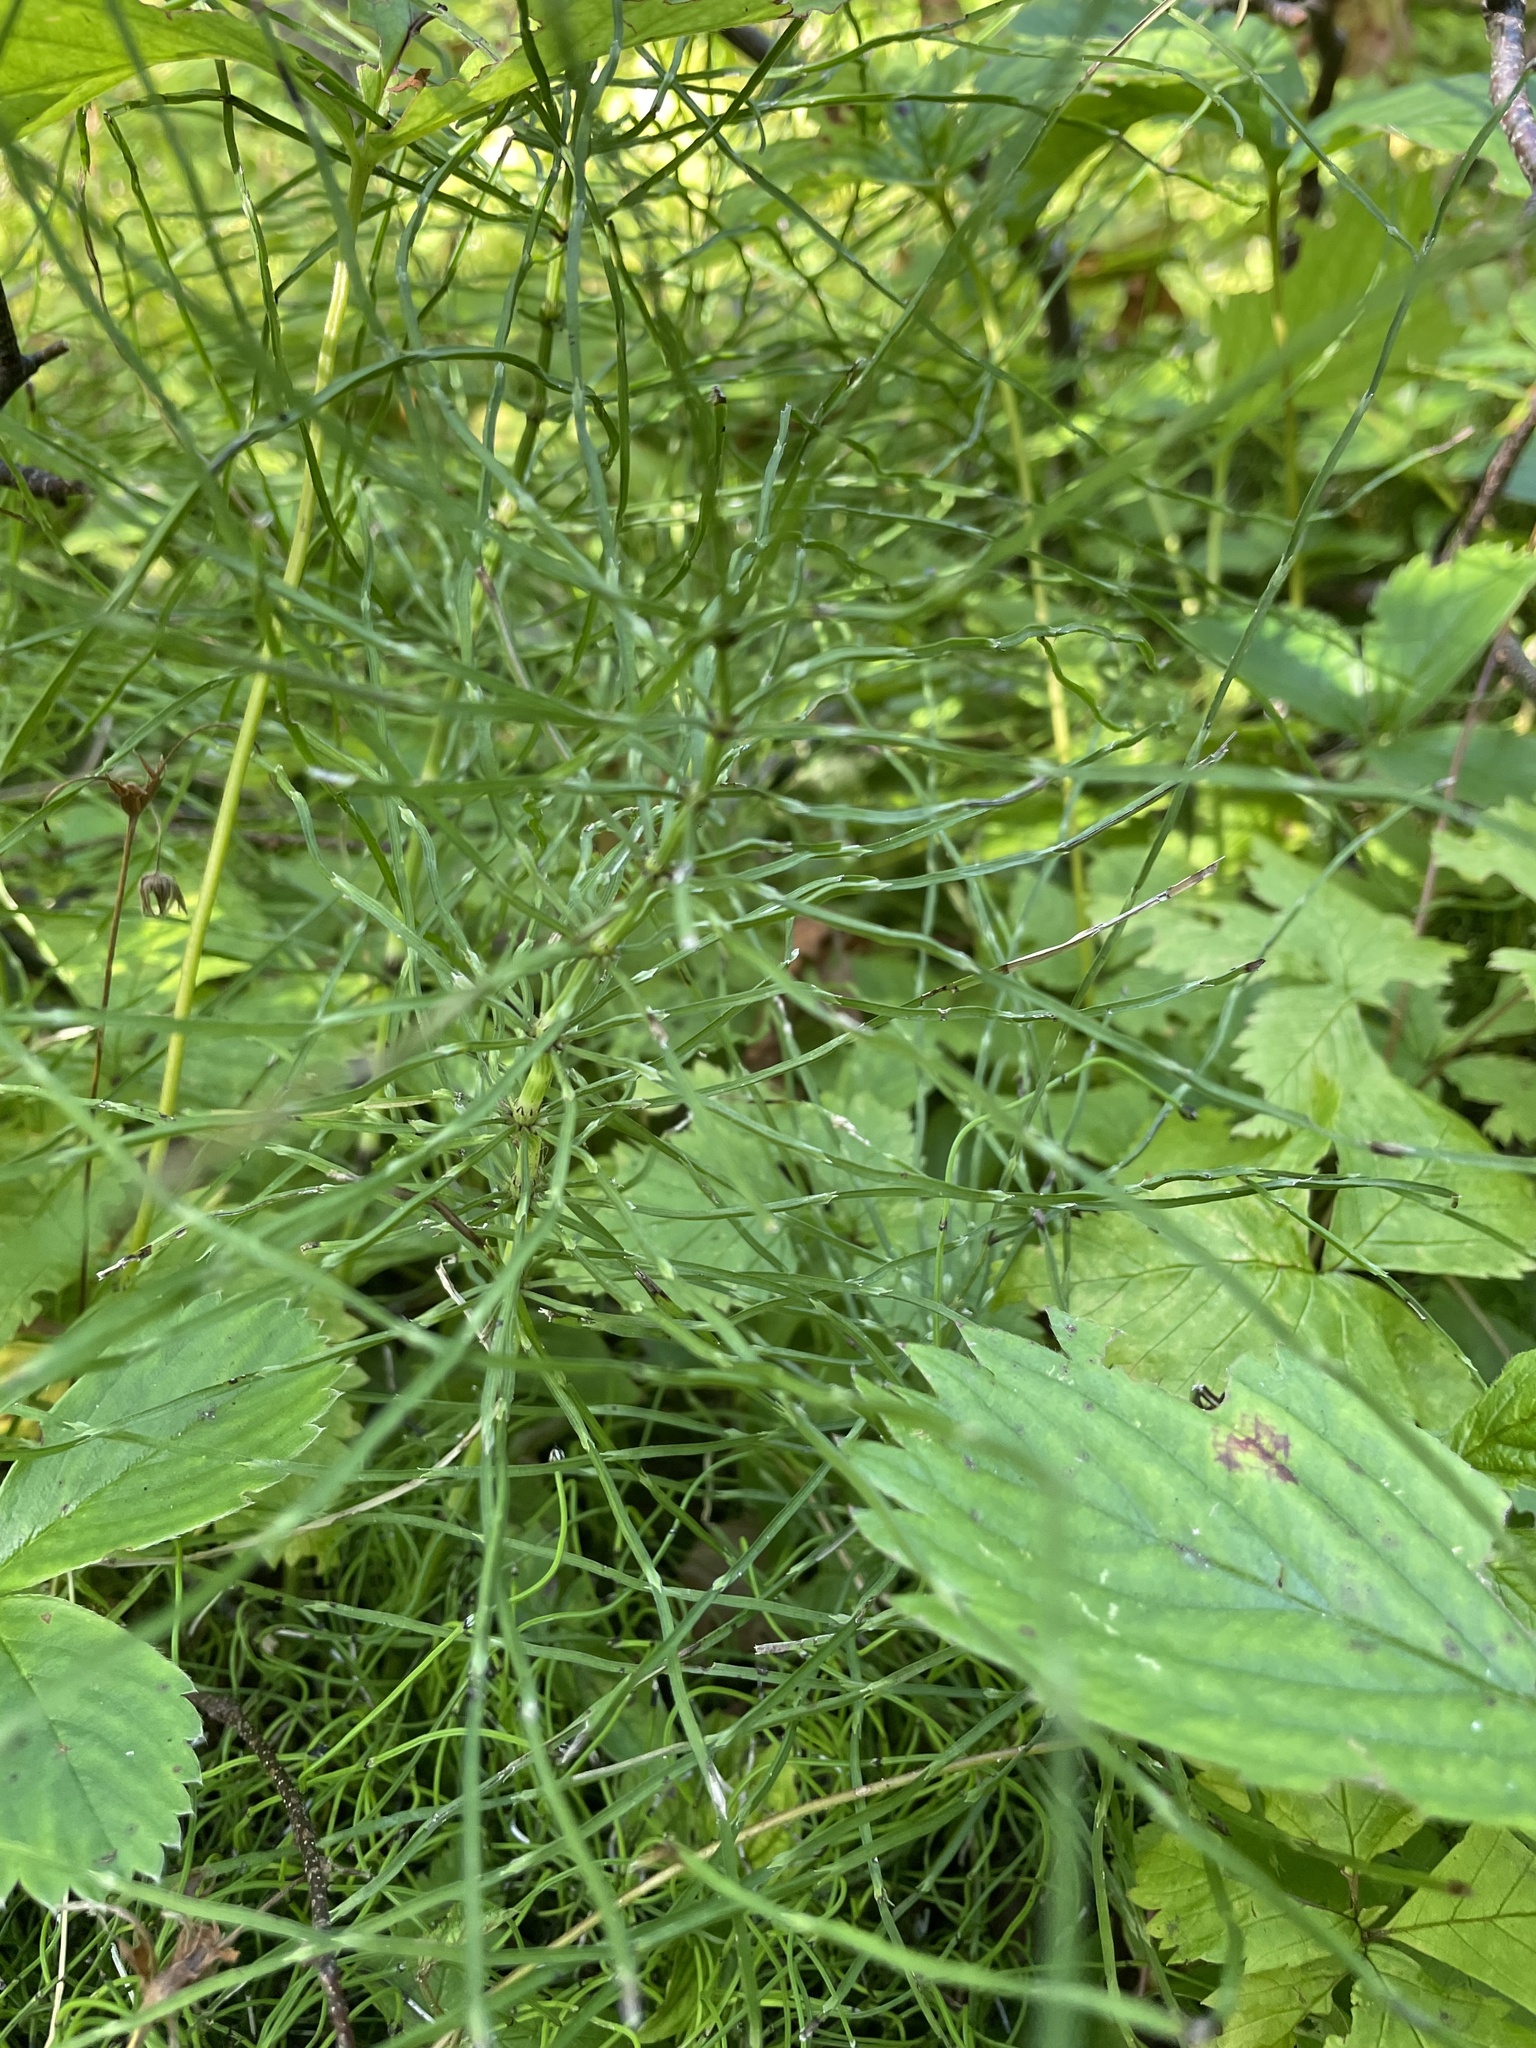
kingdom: Plantae
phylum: Tracheophyta
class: Polypodiopsida
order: Equisetales
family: Equisetaceae
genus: Equisetum
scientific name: Equisetum arvense
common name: Field horsetail
